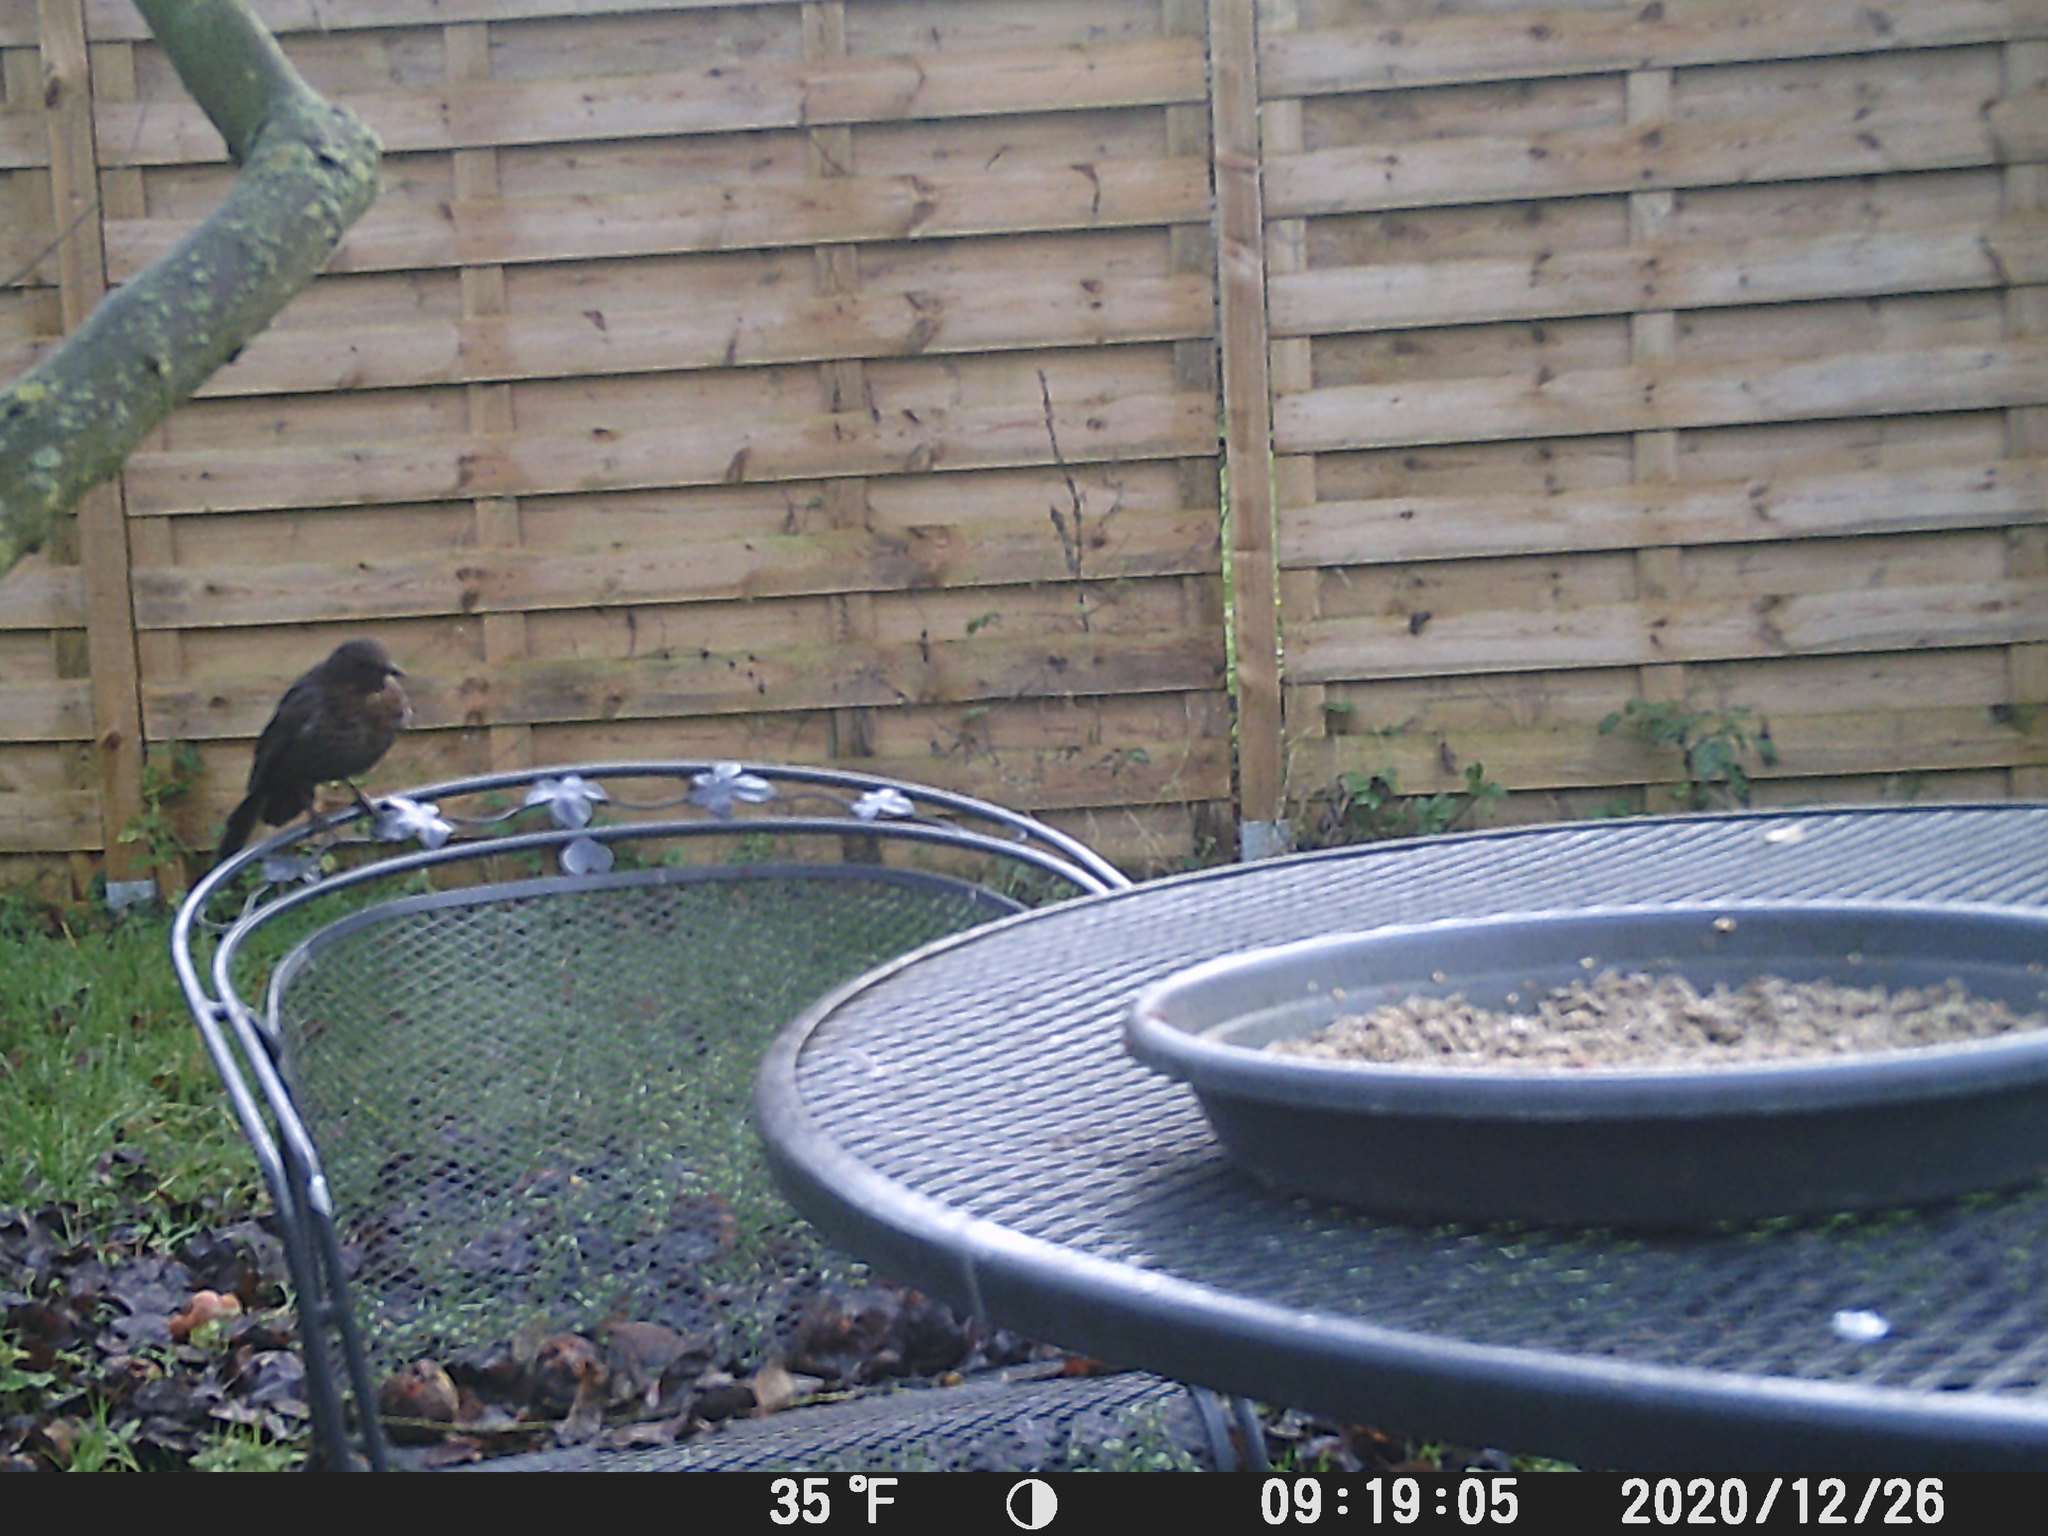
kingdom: Animalia
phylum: Chordata
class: Aves
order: Passeriformes
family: Turdidae
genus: Turdus
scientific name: Turdus merula
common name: Common blackbird
